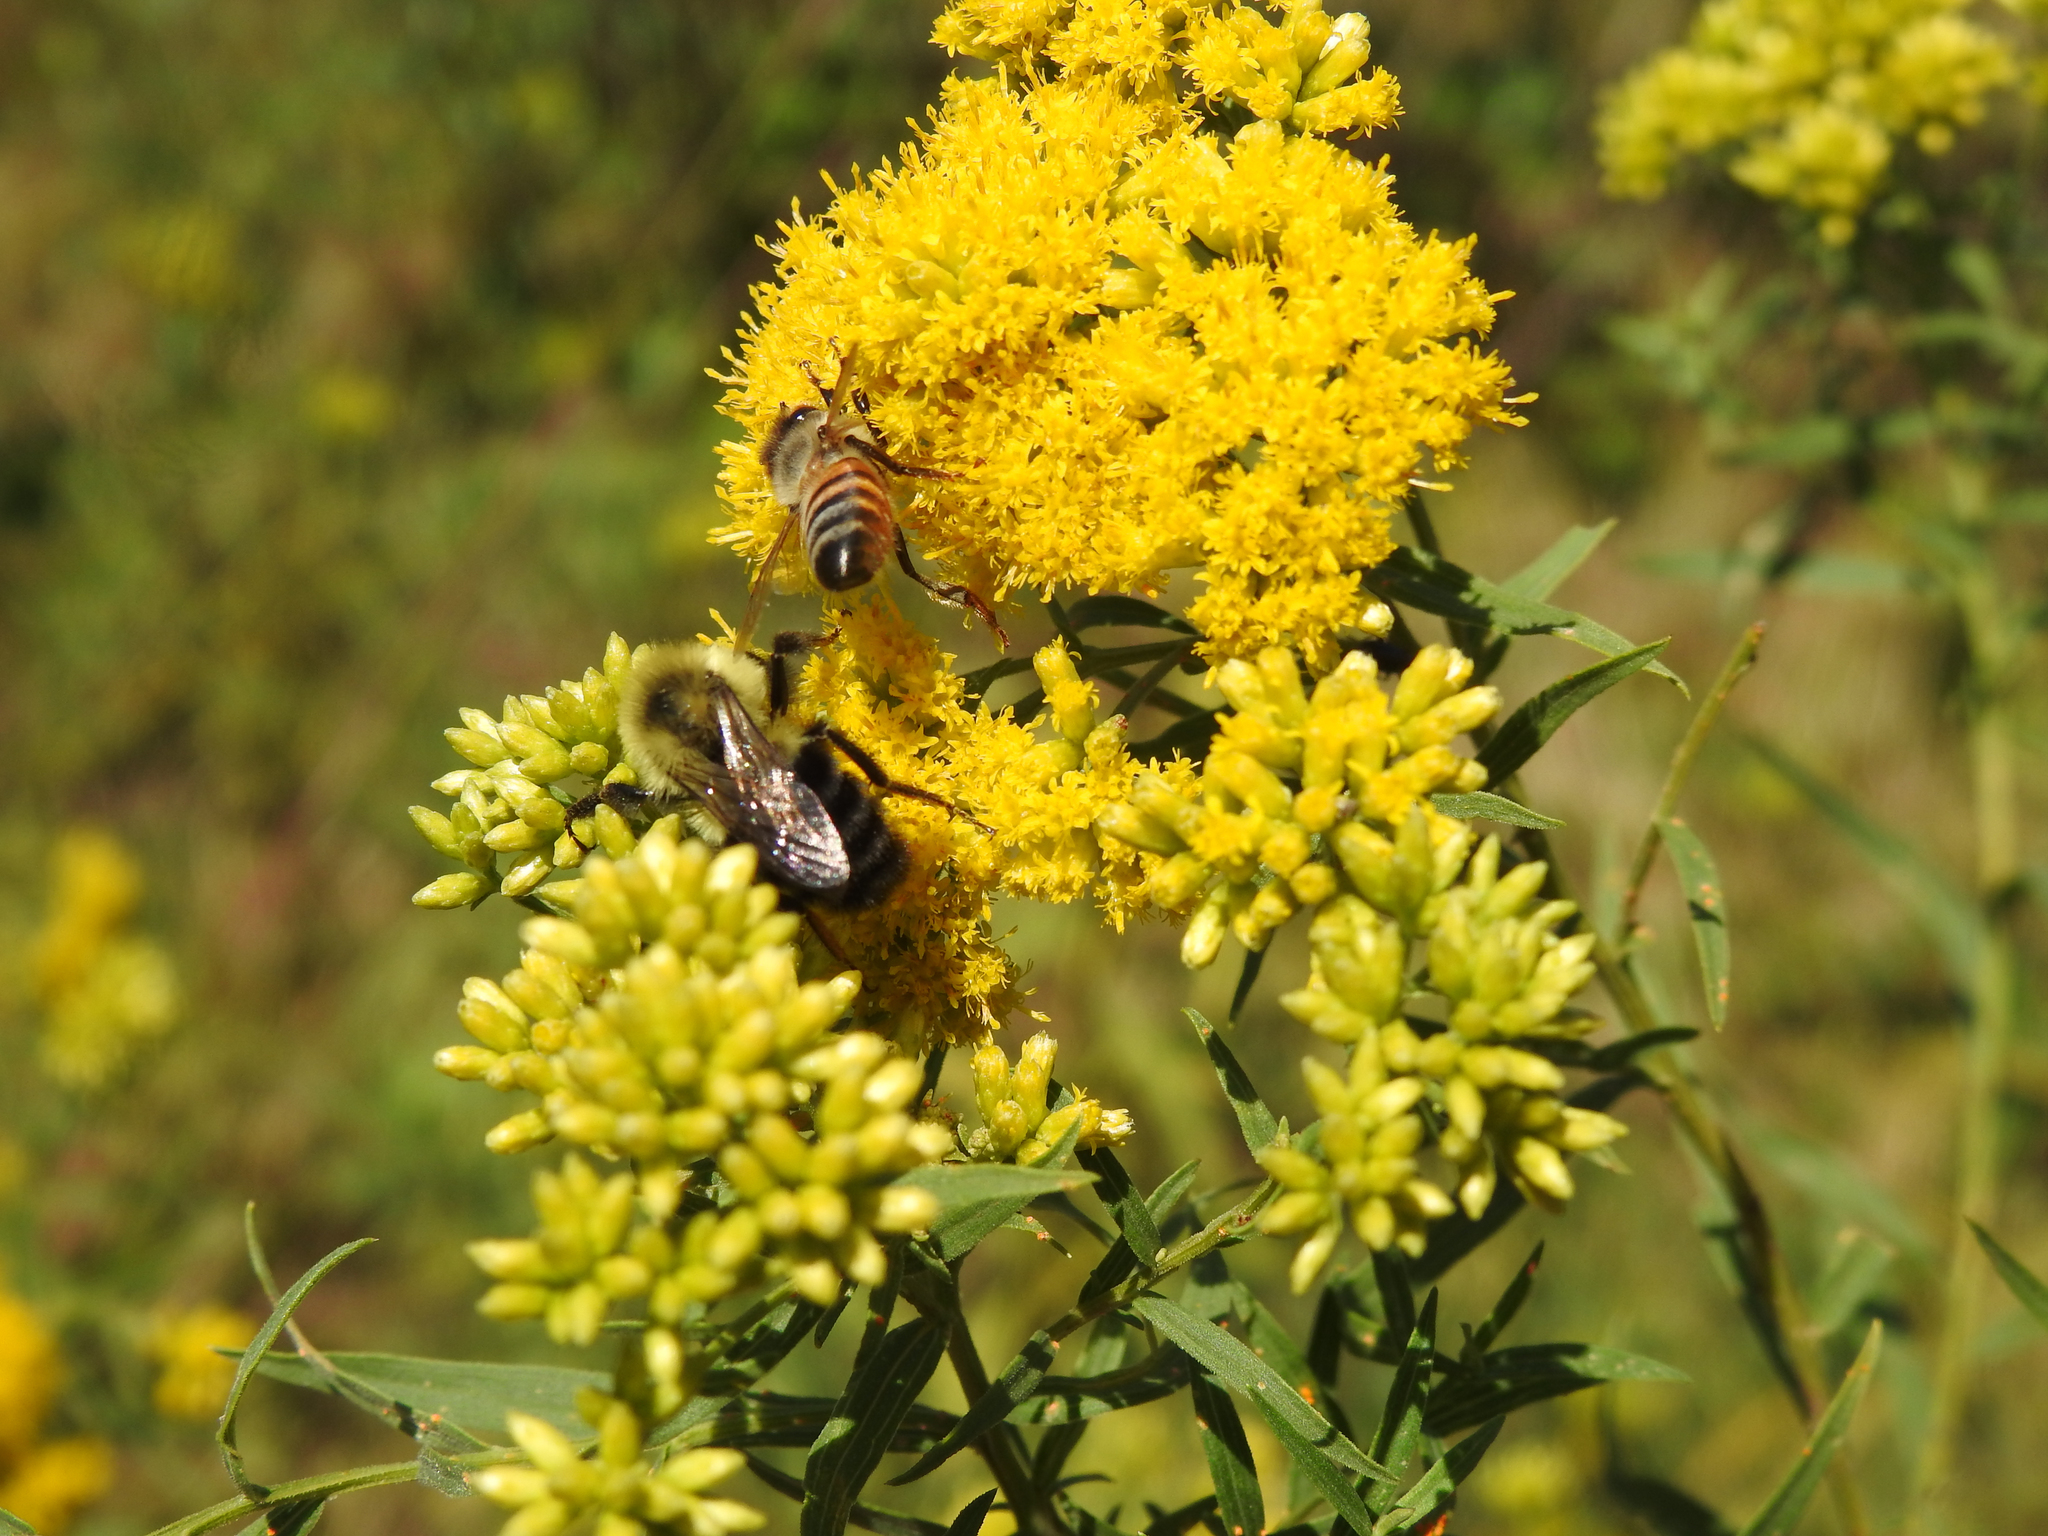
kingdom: Plantae
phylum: Tracheophyta
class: Magnoliopsida
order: Asterales
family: Asteraceae
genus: Euthamia
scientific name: Euthamia graminifolia
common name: Common goldentop
